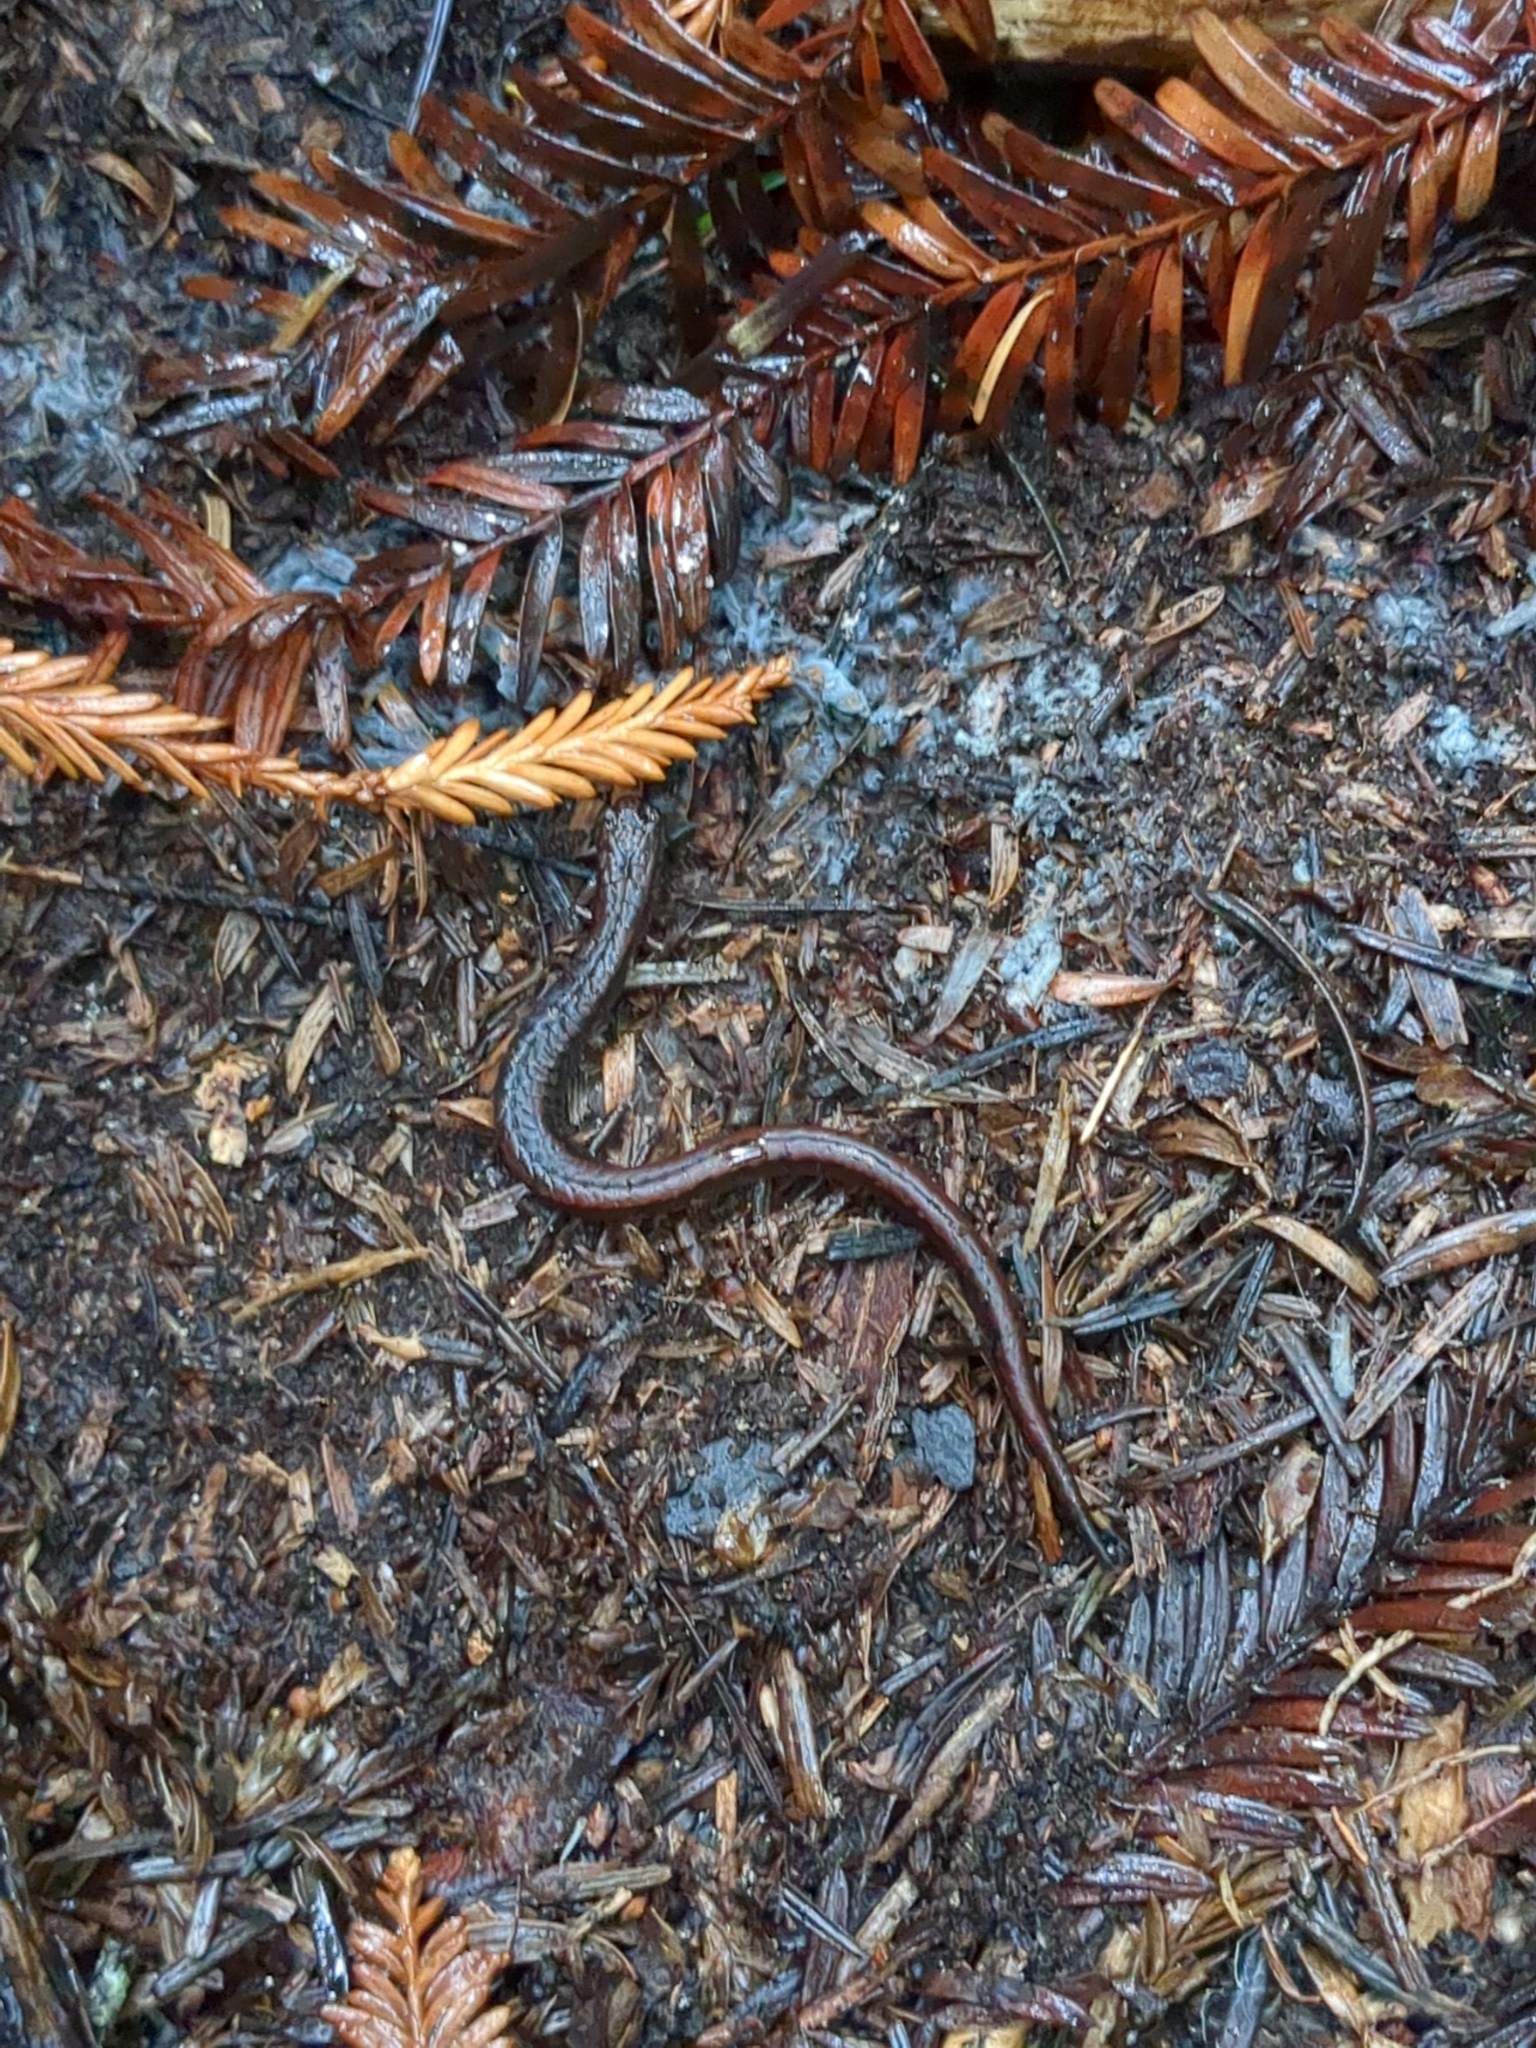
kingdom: Animalia
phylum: Chordata
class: Amphibia
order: Caudata
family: Plethodontidae
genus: Batrachoseps
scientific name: Batrachoseps attenuatus
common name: California slender salamander
